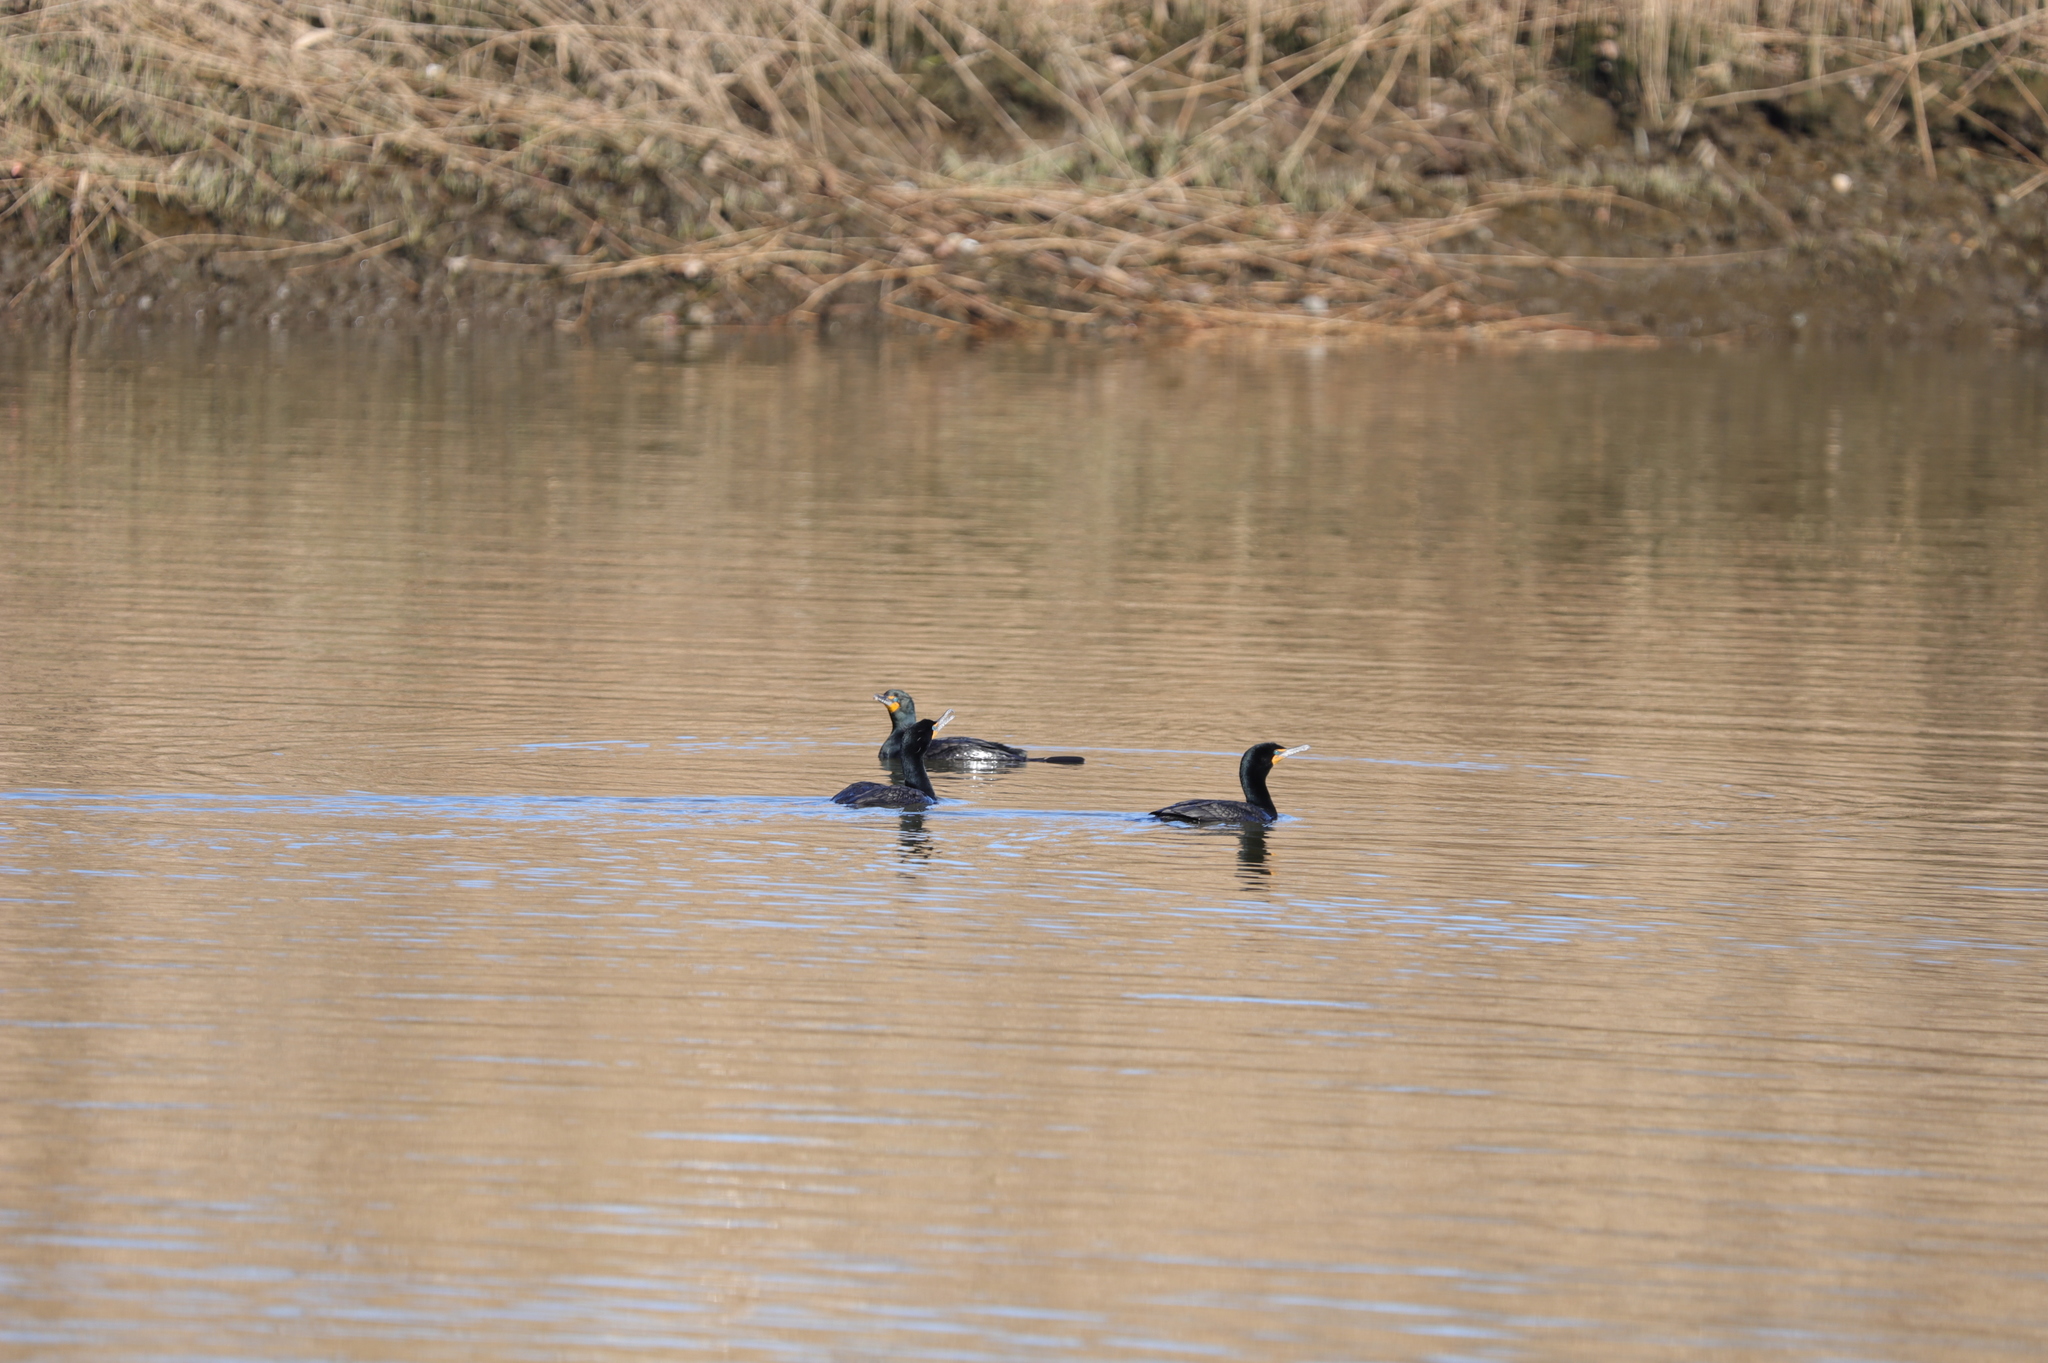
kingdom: Animalia
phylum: Chordata
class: Aves
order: Suliformes
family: Phalacrocoracidae
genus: Phalacrocorax
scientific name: Phalacrocorax auritus
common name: Double-crested cormorant
